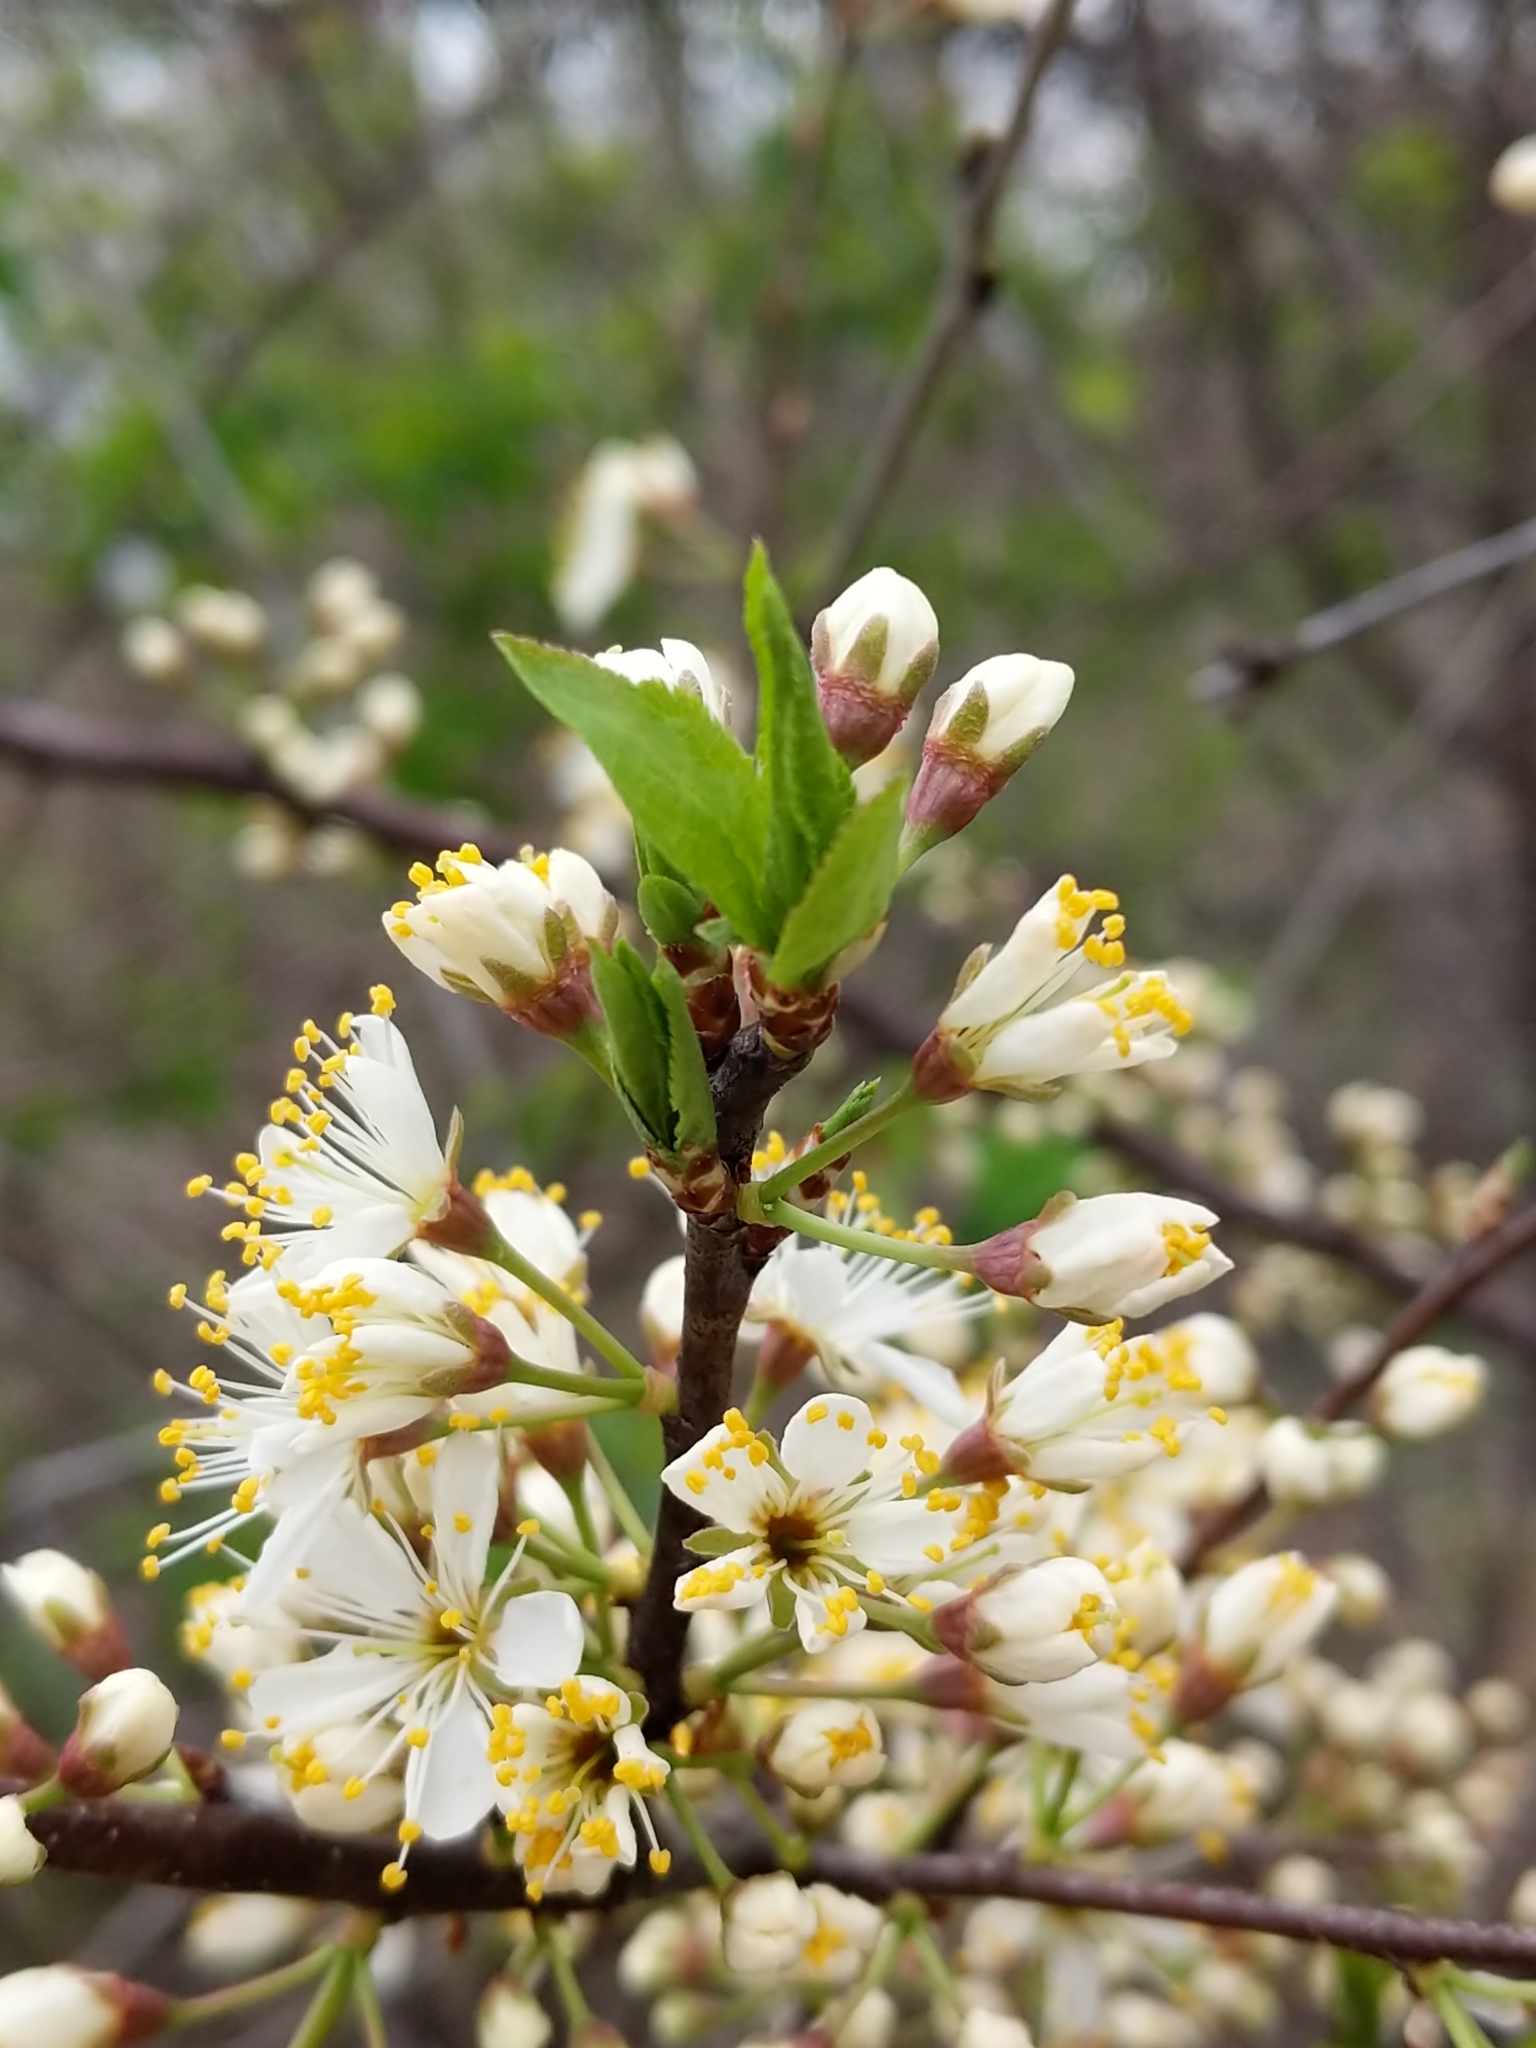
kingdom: Plantae
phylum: Tracheophyta
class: Magnoliopsida
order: Rosales
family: Rosaceae
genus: Prunus
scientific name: Prunus americana
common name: American plum
